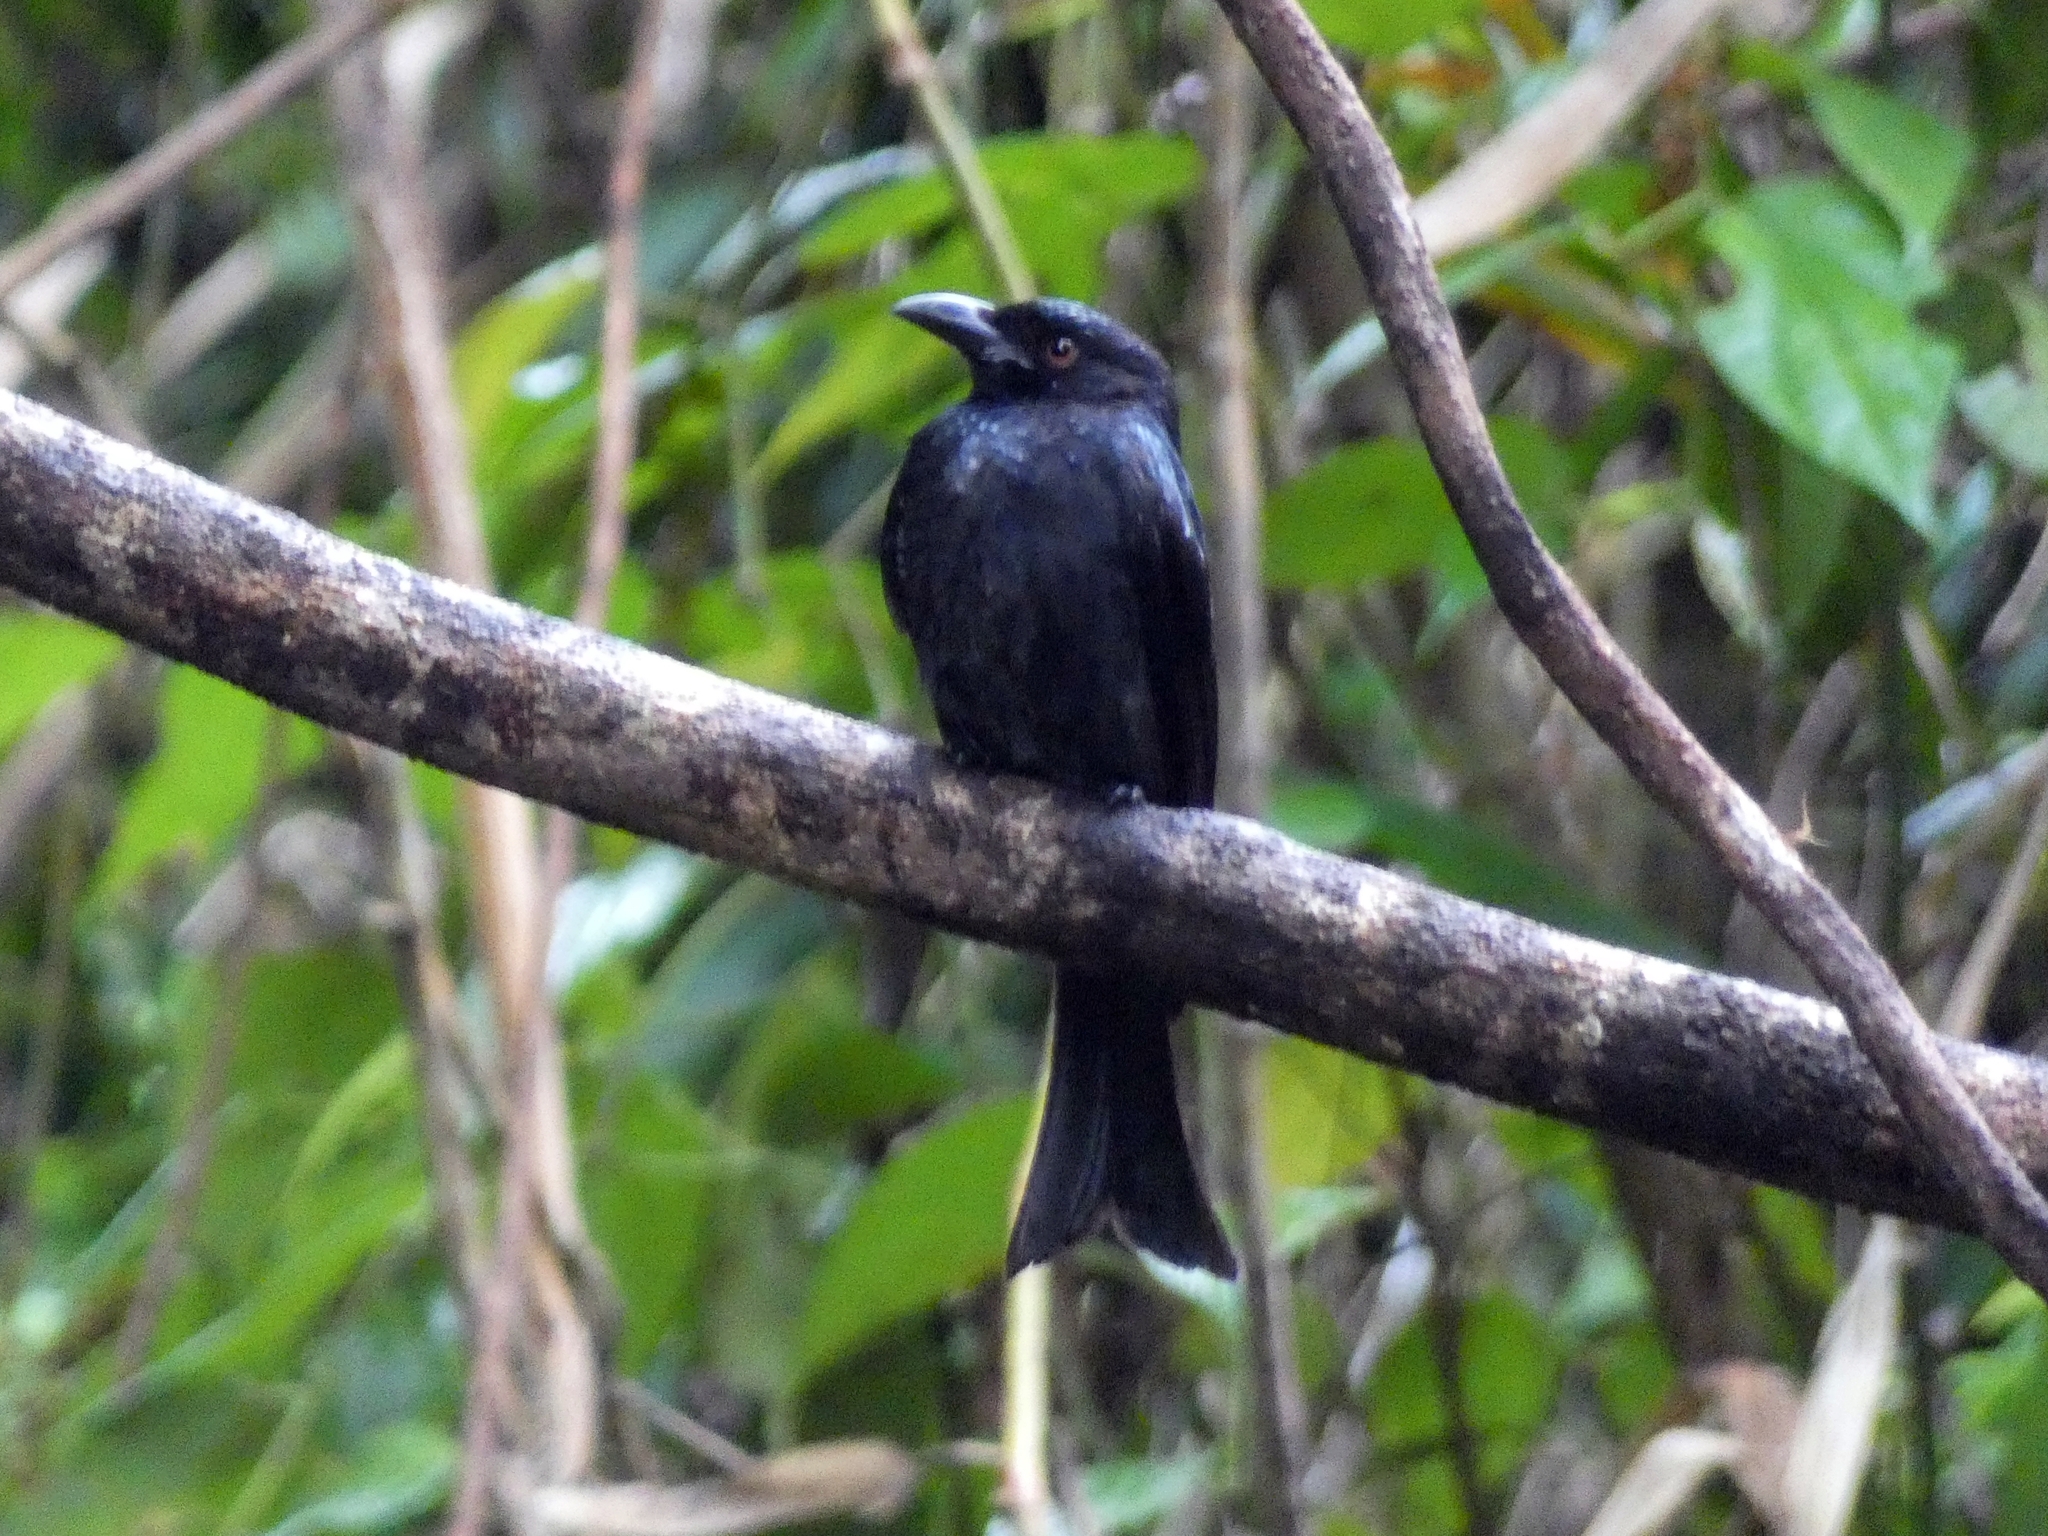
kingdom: Animalia
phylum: Chordata
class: Aves
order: Passeriformes
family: Dicruridae
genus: Dicrurus
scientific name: Dicrurus bracteatus
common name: Spangled drongo
